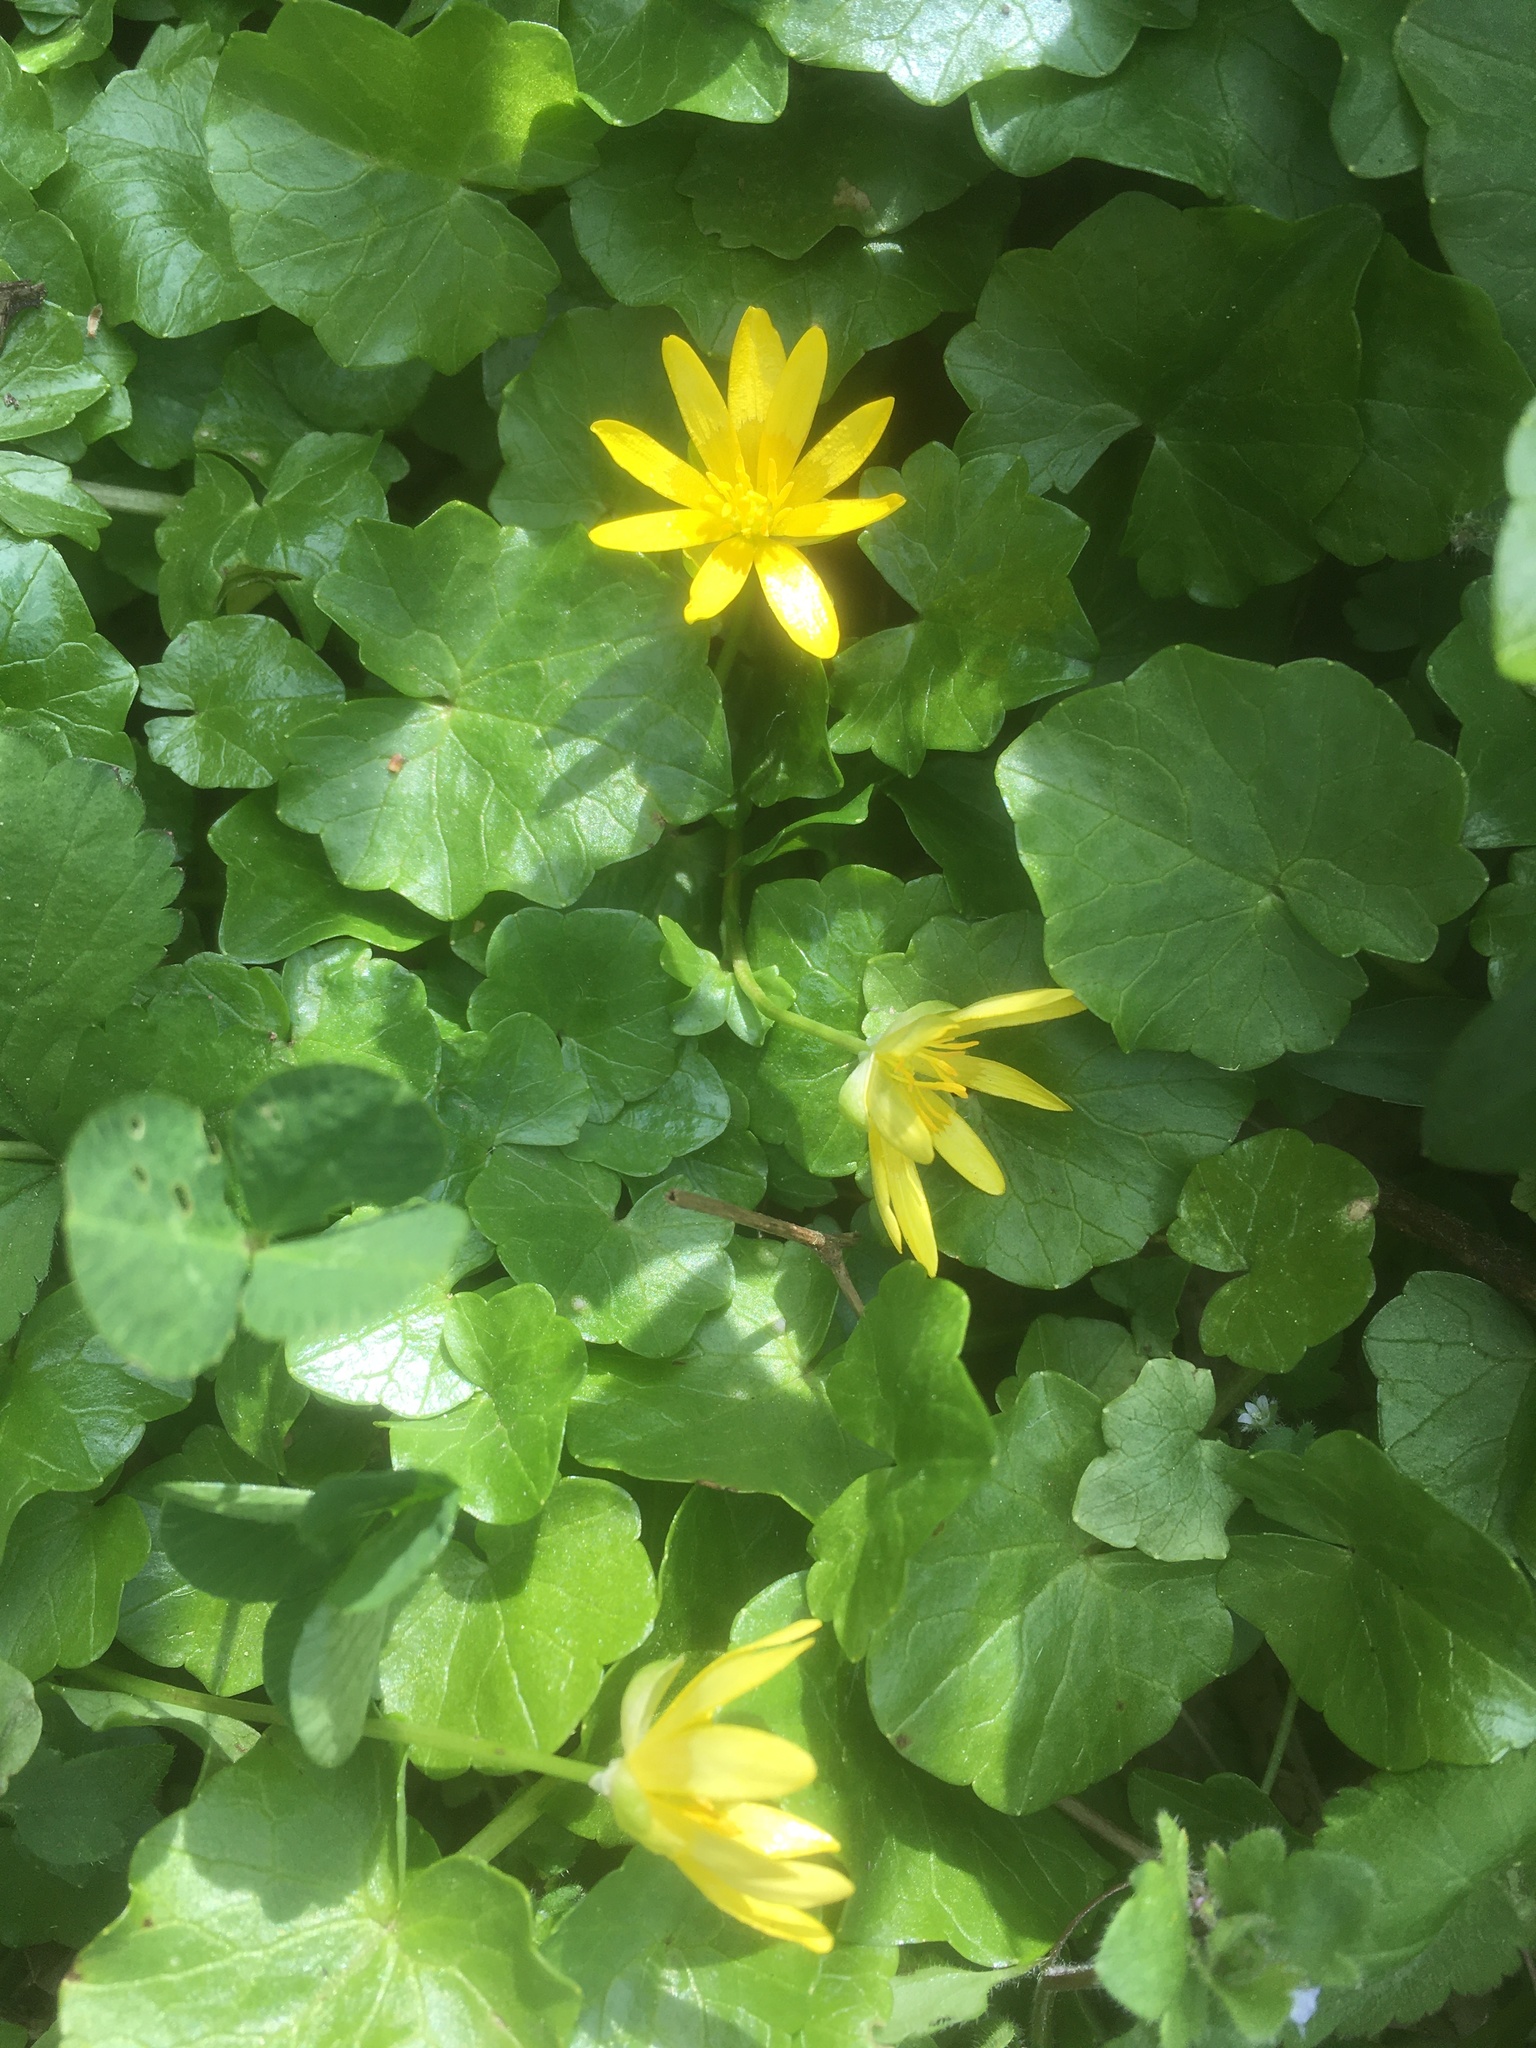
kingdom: Plantae
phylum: Tracheophyta
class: Magnoliopsida
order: Ranunculales
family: Ranunculaceae
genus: Ficaria
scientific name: Ficaria verna
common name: Lesser celandine
